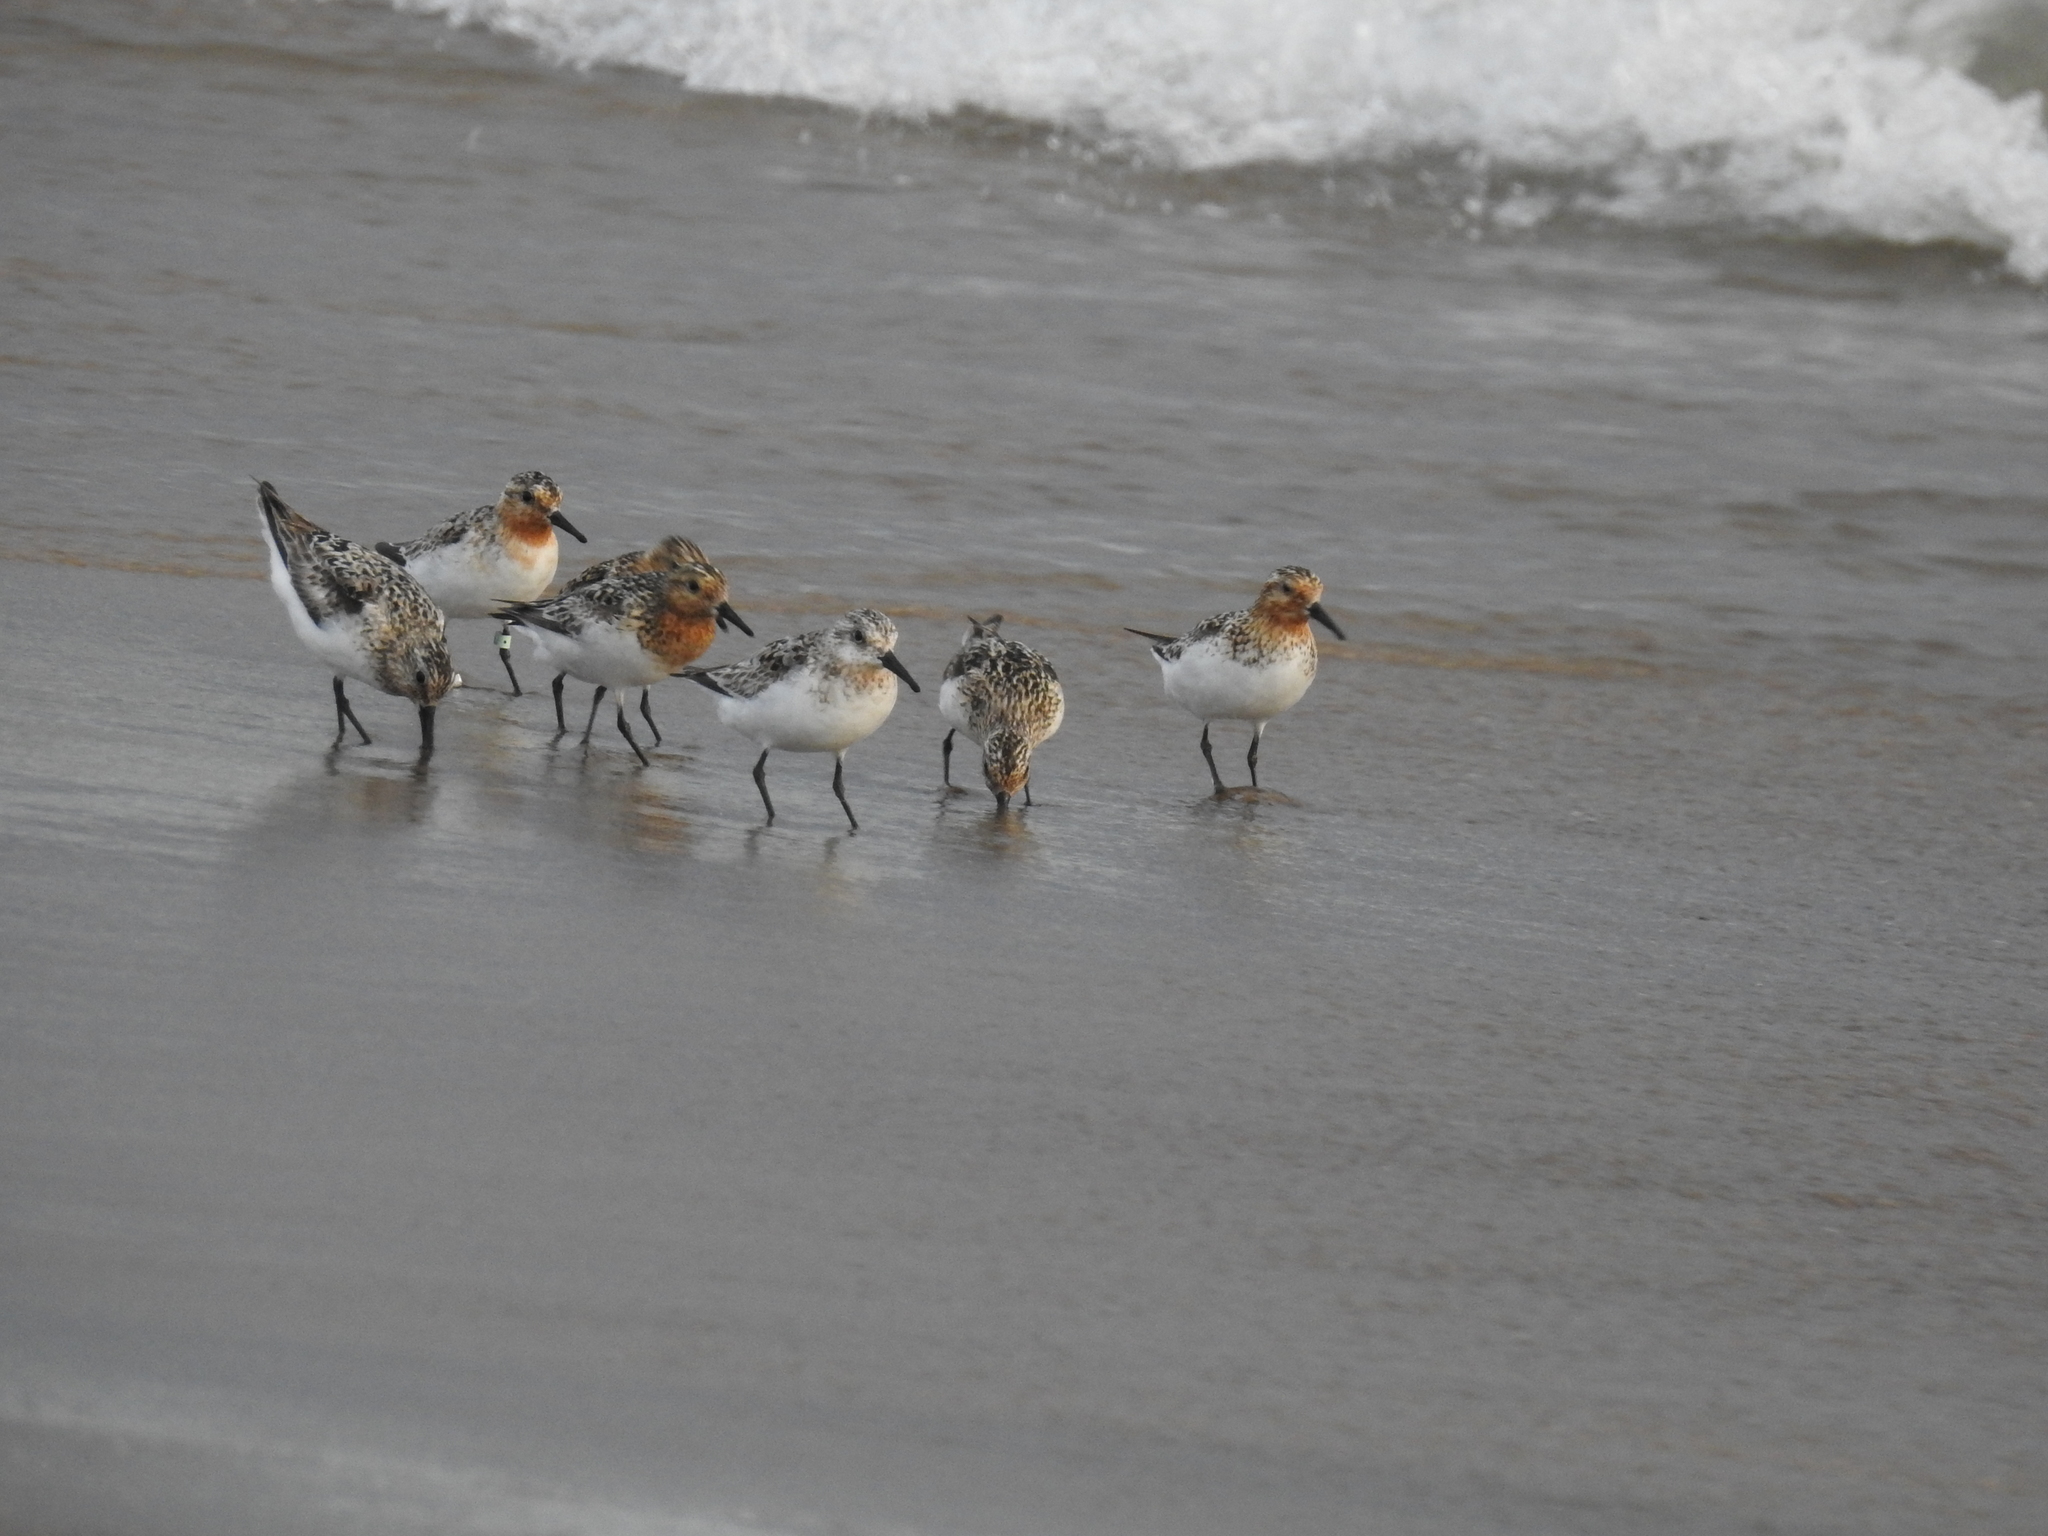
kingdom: Animalia
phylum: Chordata
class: Aves
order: Charadriiformes
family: Scolopacidae
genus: Calidris
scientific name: Calidris alba
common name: Sanderling
